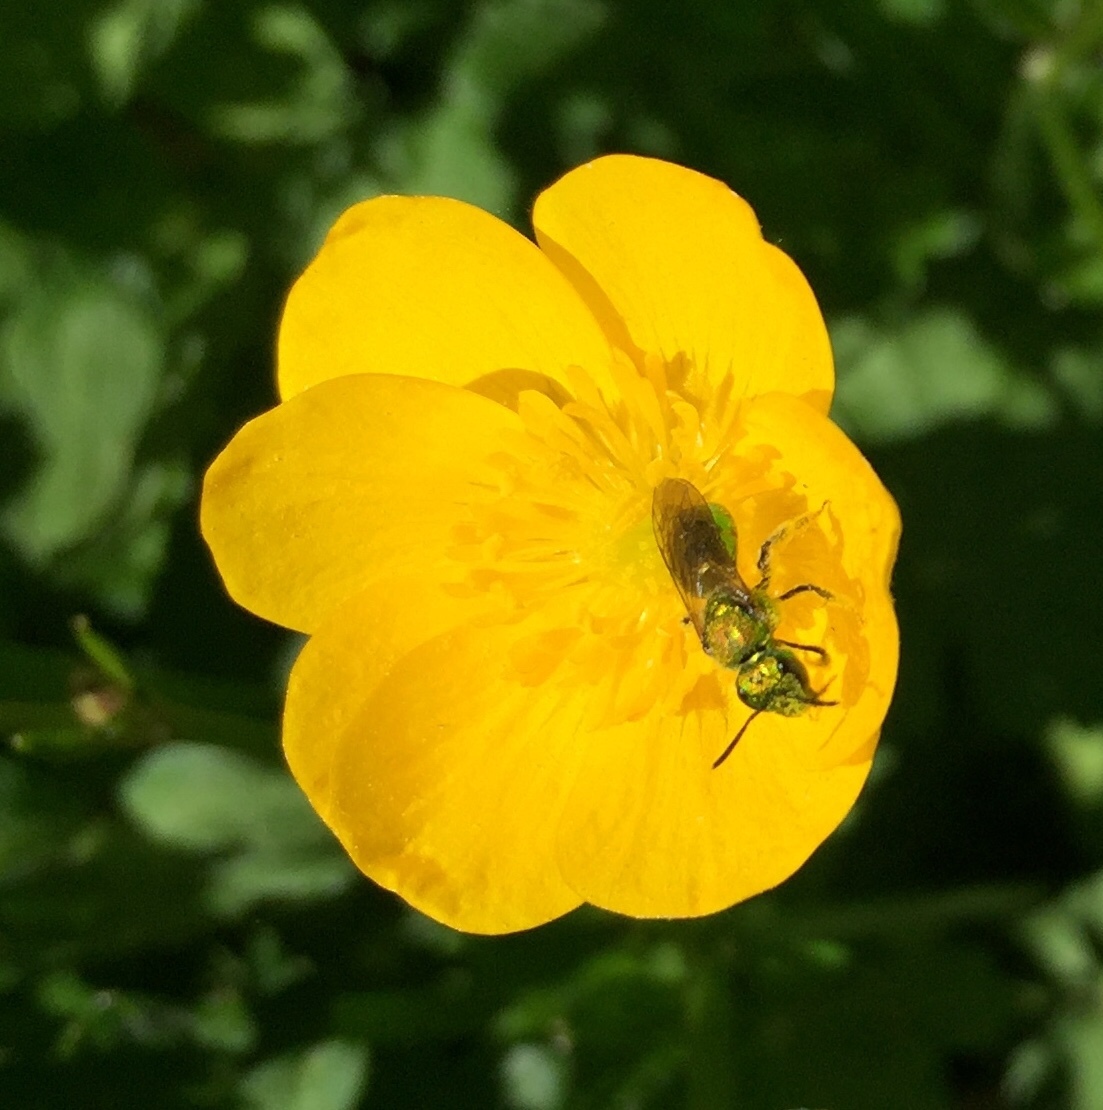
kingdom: Animalia
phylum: Arthropoda
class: Insecta
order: Hymenoptera
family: Halictidae
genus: Augochlora
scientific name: Augochlora pura
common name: Pure green sweat bee
